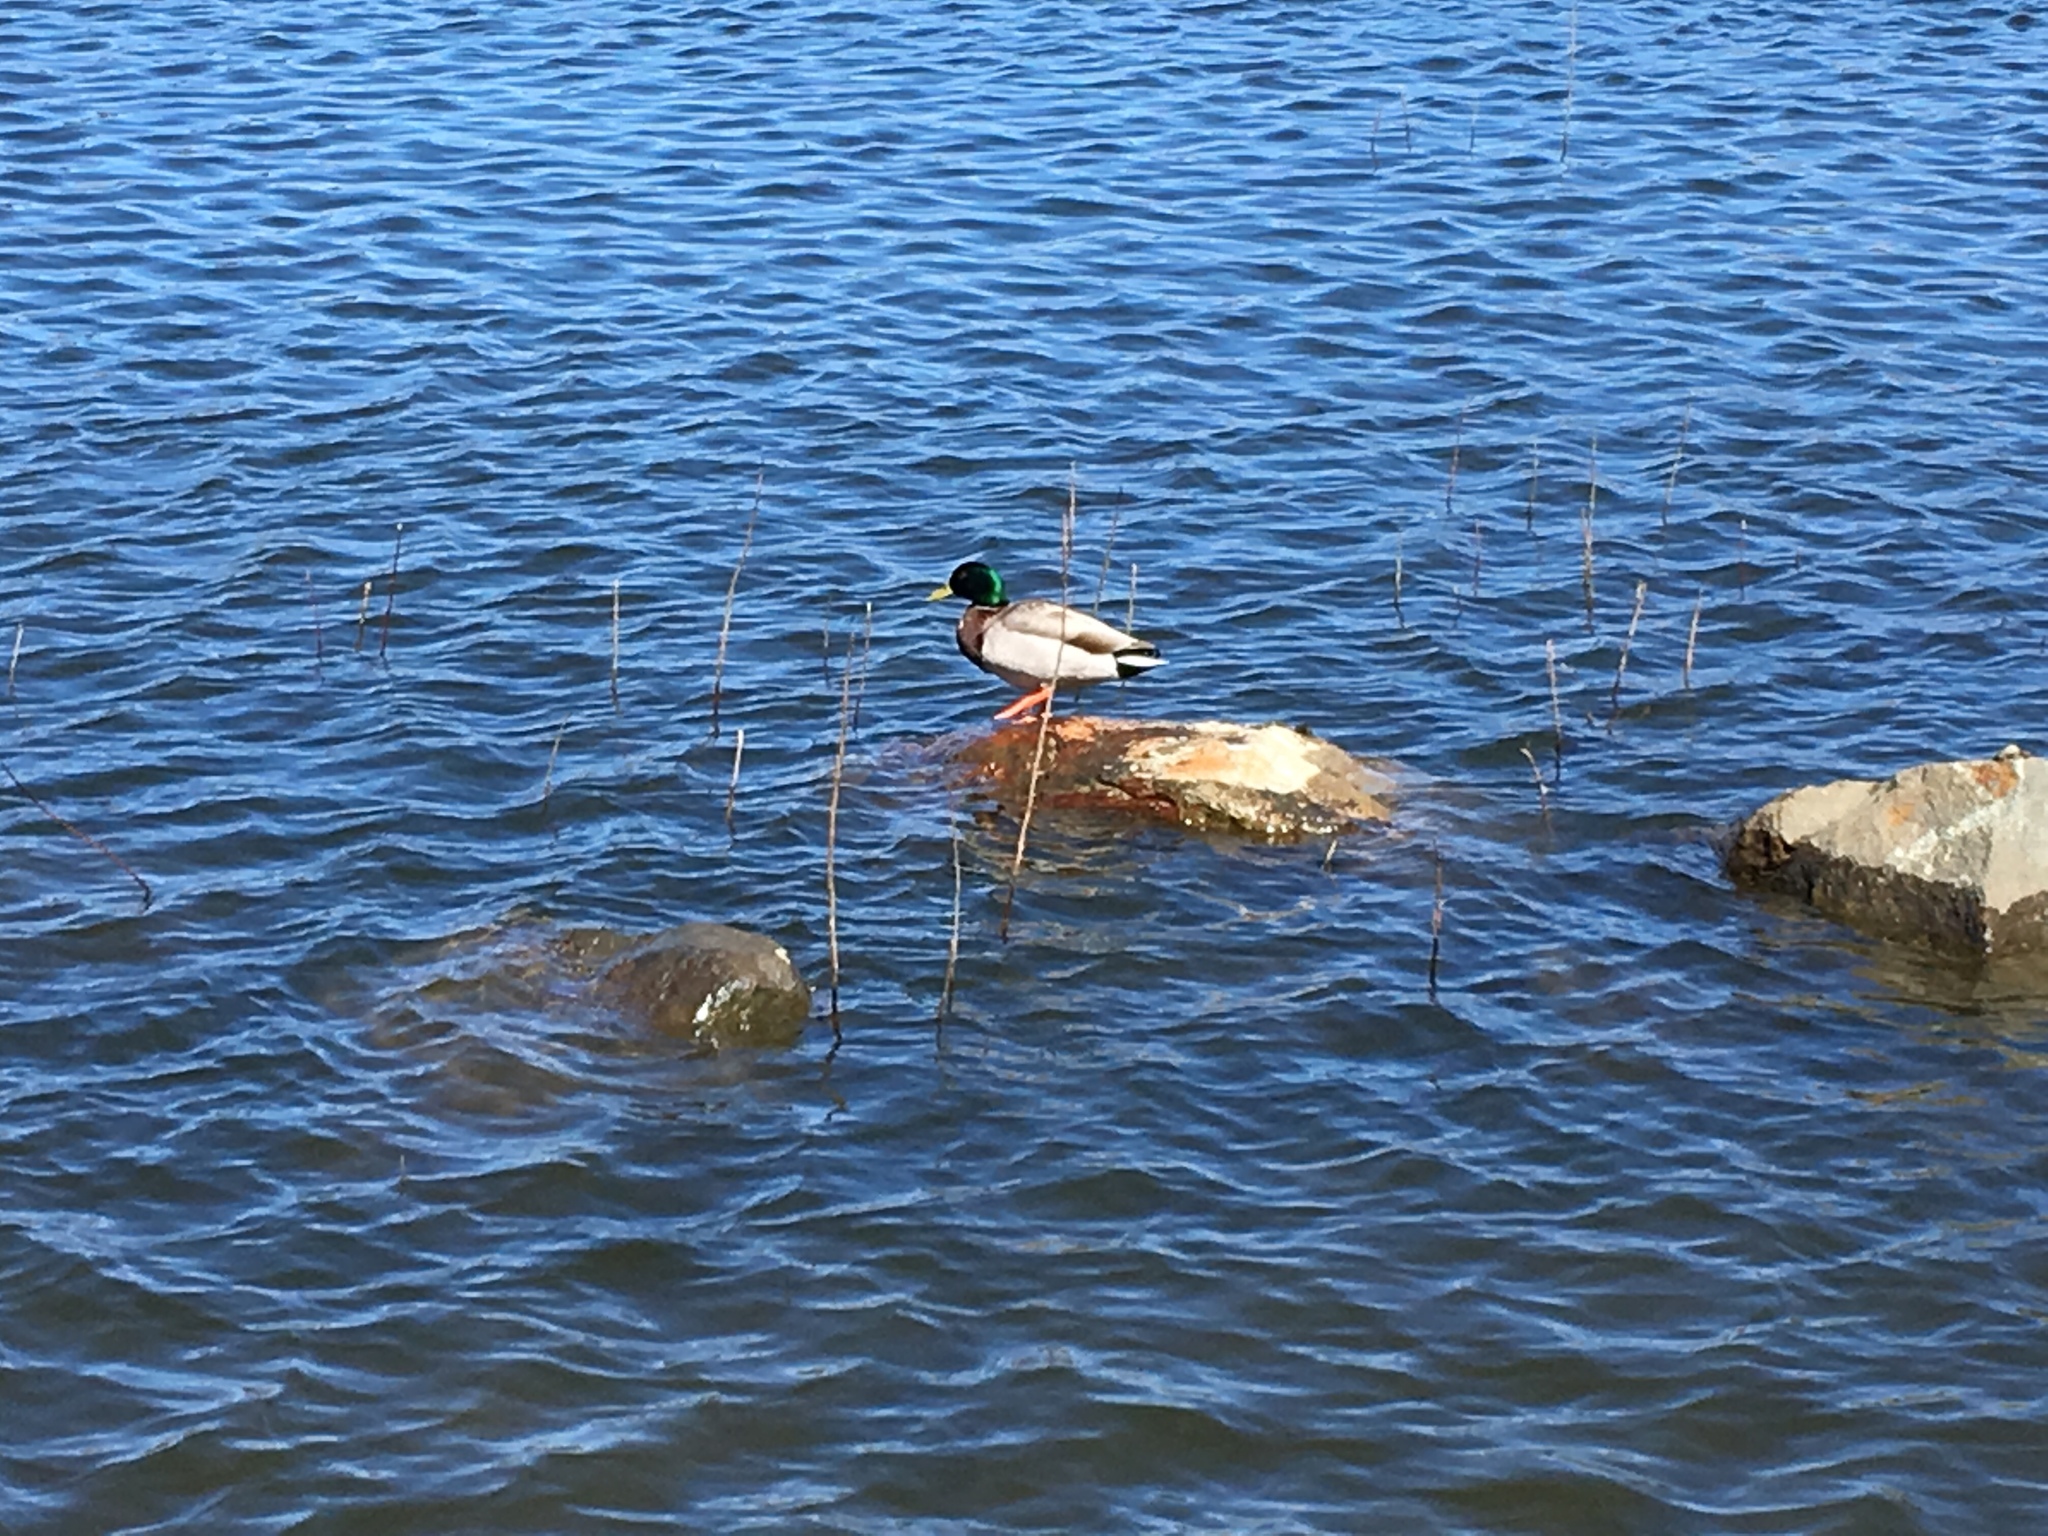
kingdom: Animalia
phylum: Chordata
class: Aves
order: Anseriformes
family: Anatidae
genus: Anas
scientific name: Anas platyrhynchos
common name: Mallard
